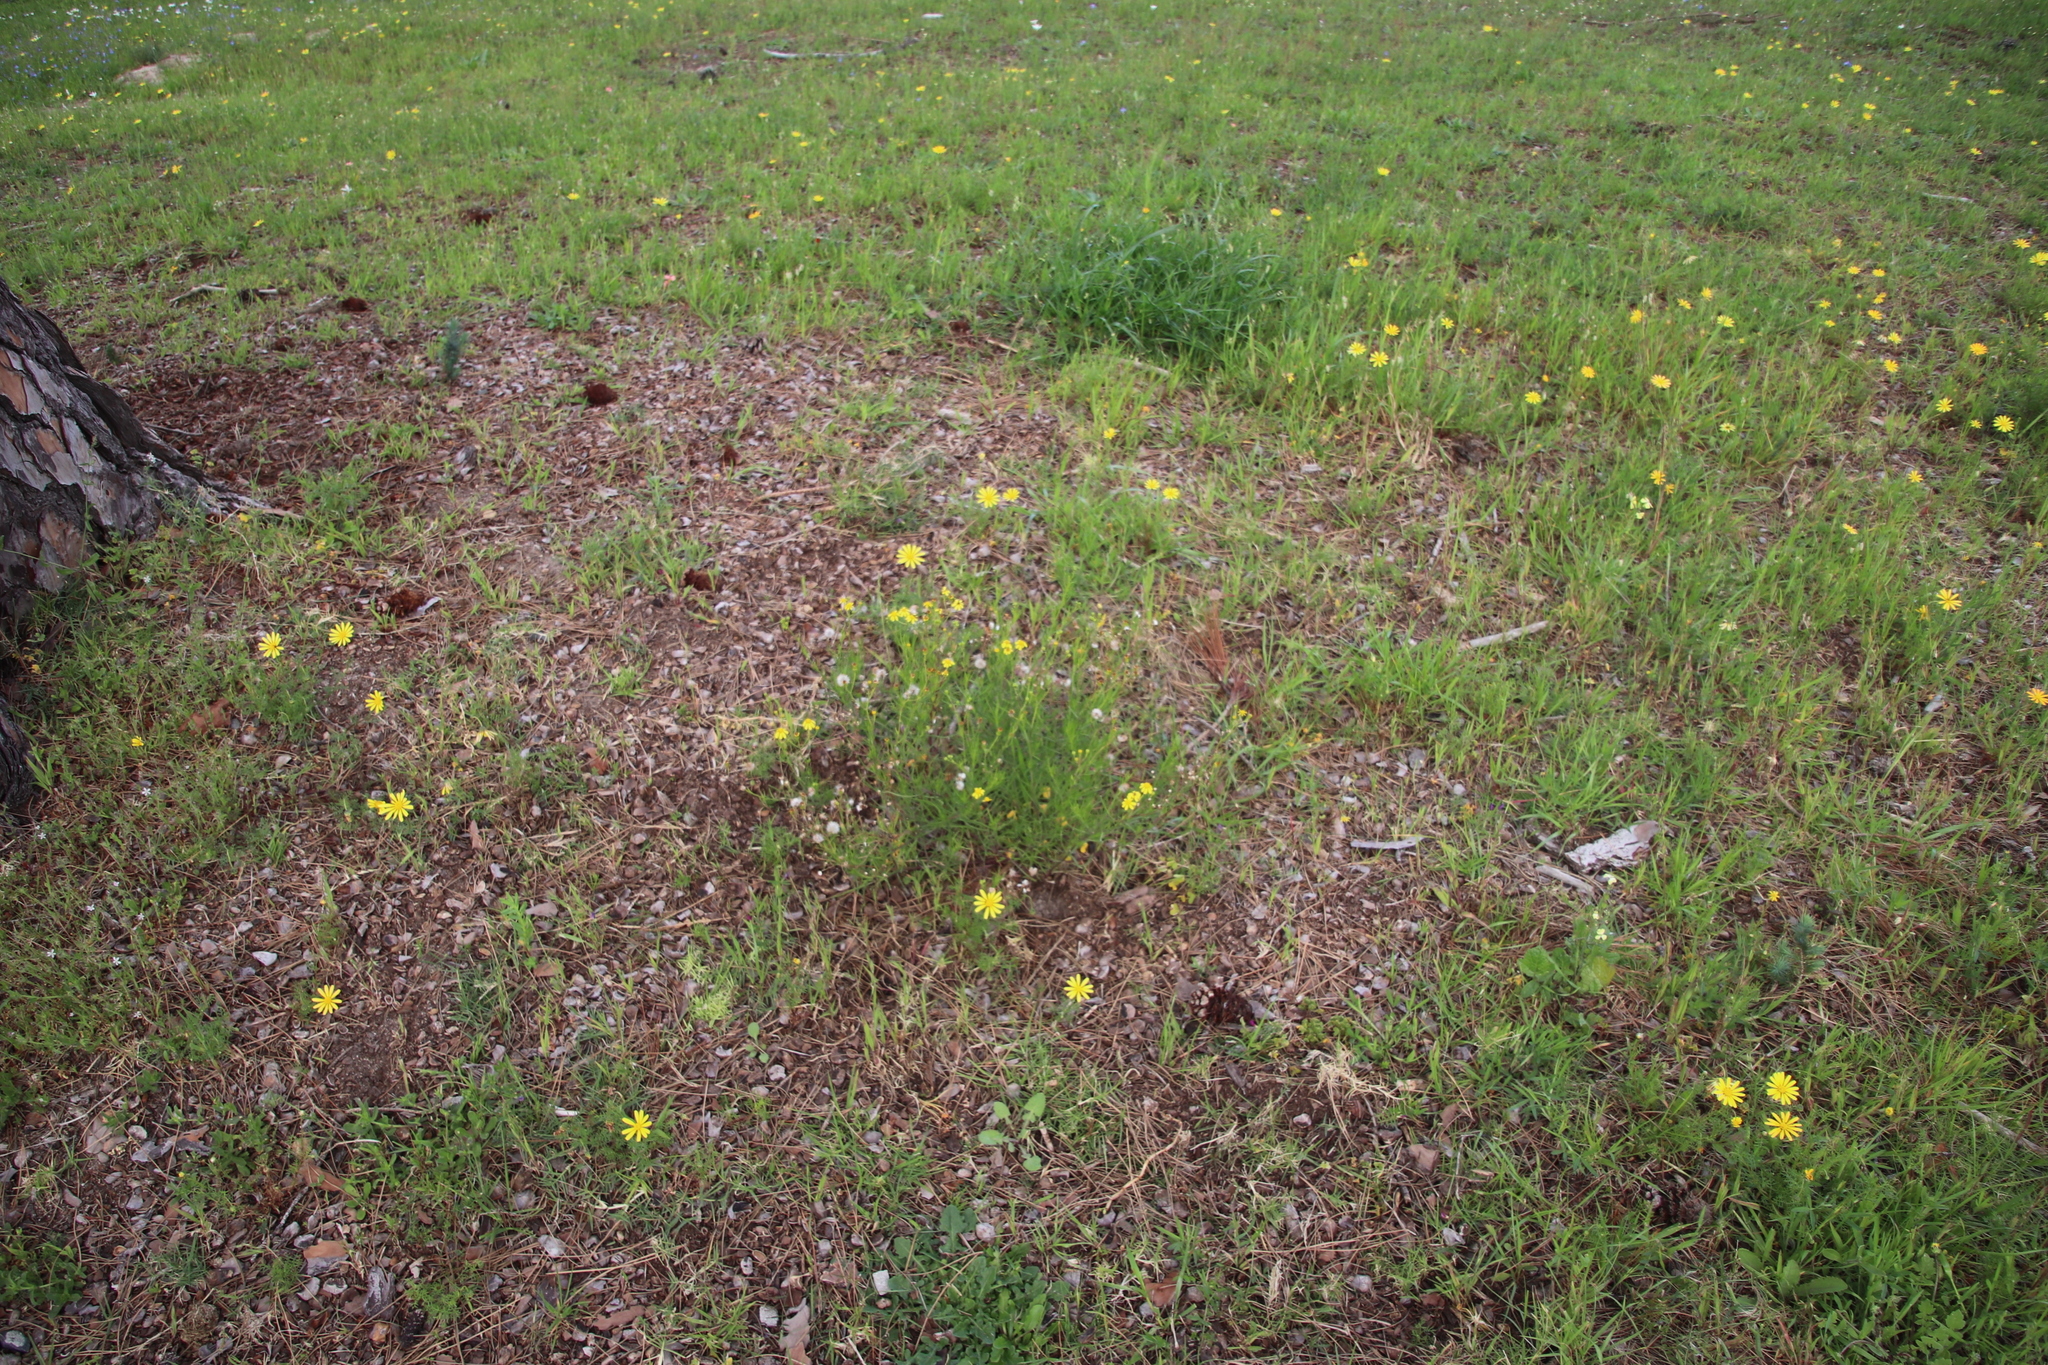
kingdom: Plantae
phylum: Tracheophyta
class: Magnoliopsida
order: Asterales
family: Asteraceae
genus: Senecio
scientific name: Senecio burchellii
